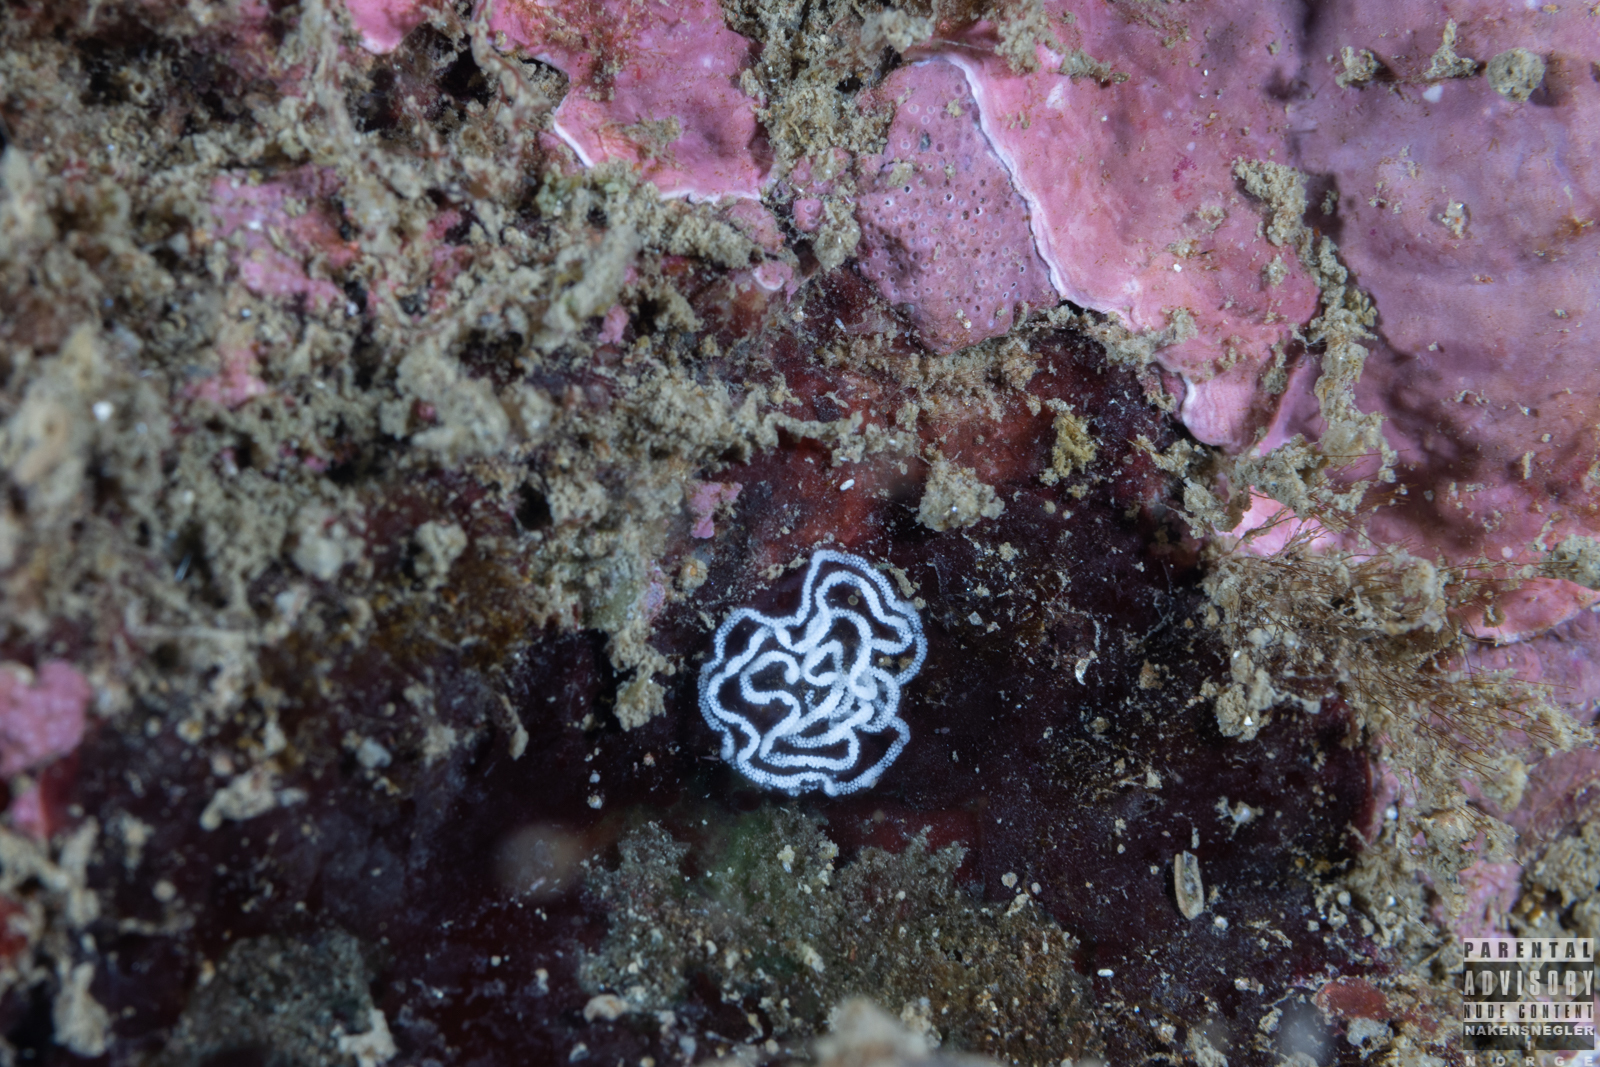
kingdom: Animalia
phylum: Mollusca
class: Gastropoda
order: Nudibranchia
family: Tritoniidae
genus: Duvaucelia
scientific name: Duvaucelia plebeia
